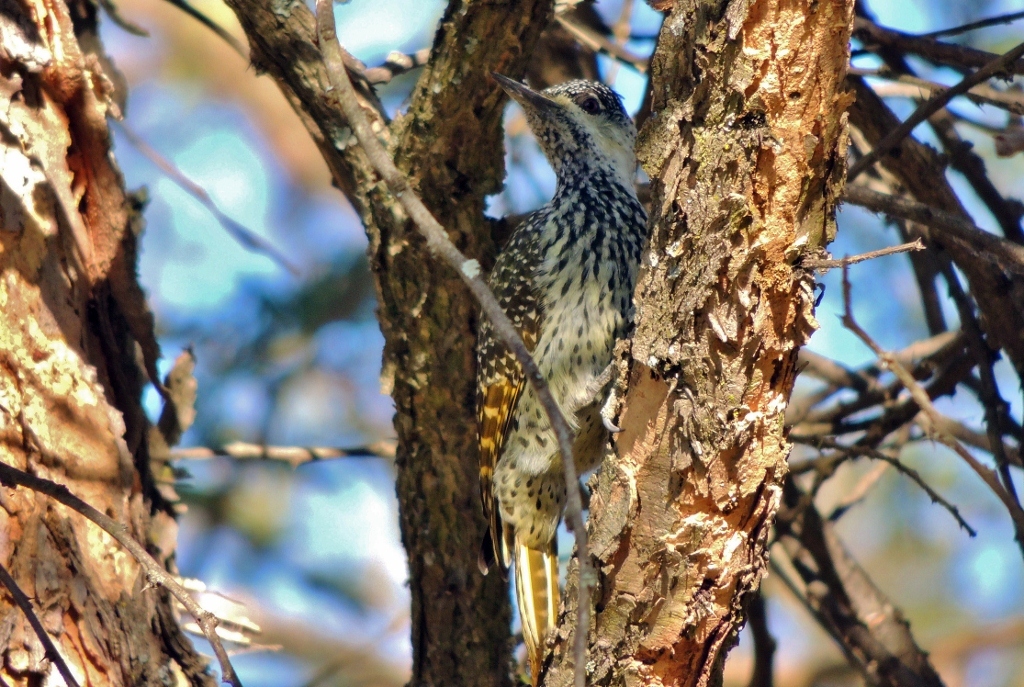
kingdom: Animalia
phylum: Chordata
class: Aves
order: Piciformes
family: Picidae
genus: Campethera
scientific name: Campethera abingoni
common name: Golden-tailed woodpecker
